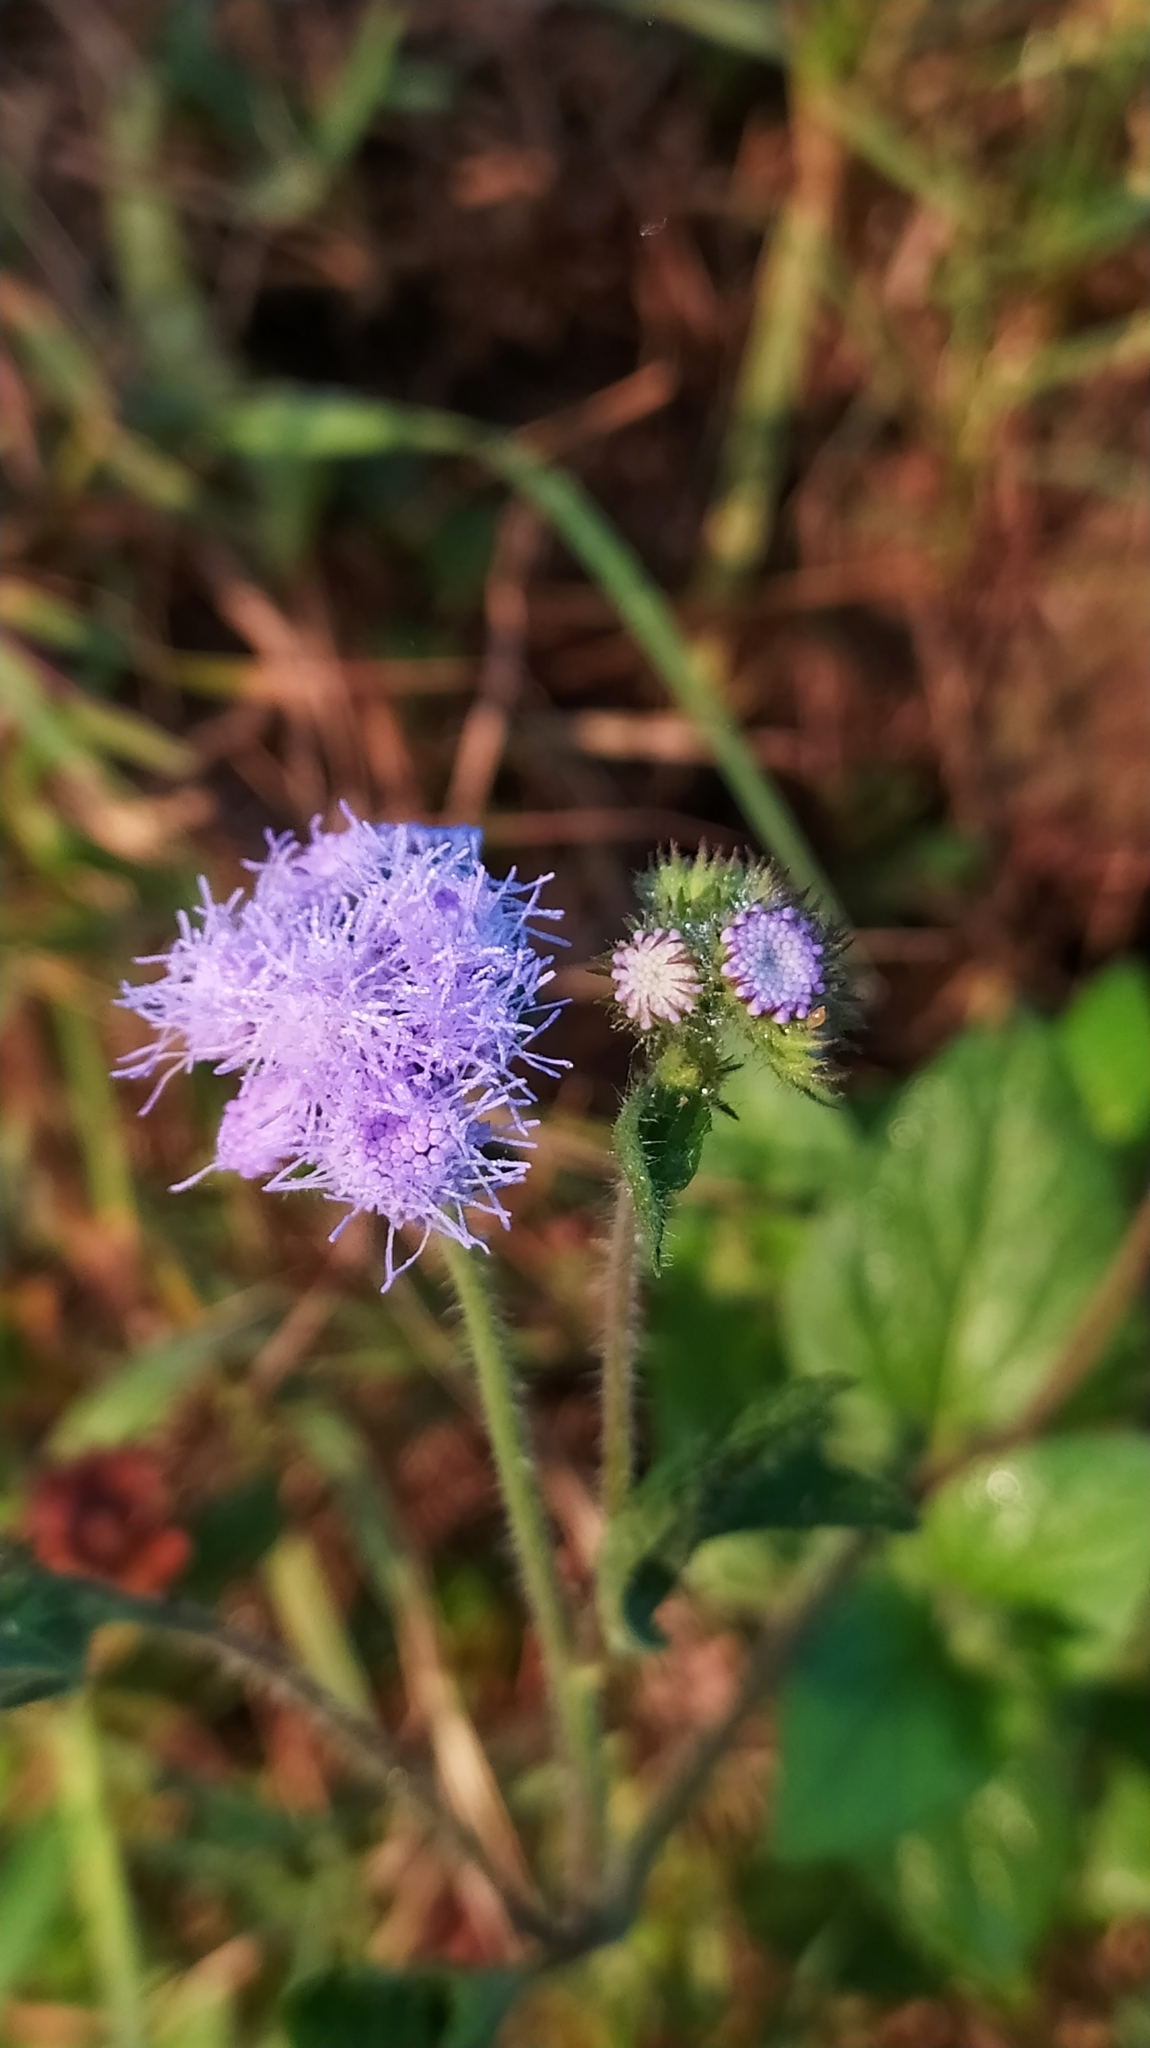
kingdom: Plantae
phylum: Tracheophyta
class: Magnoliopsida
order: Asterales
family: Asteraceae
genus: Ageratum
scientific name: Ageratum houstonianum
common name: Bluemink
